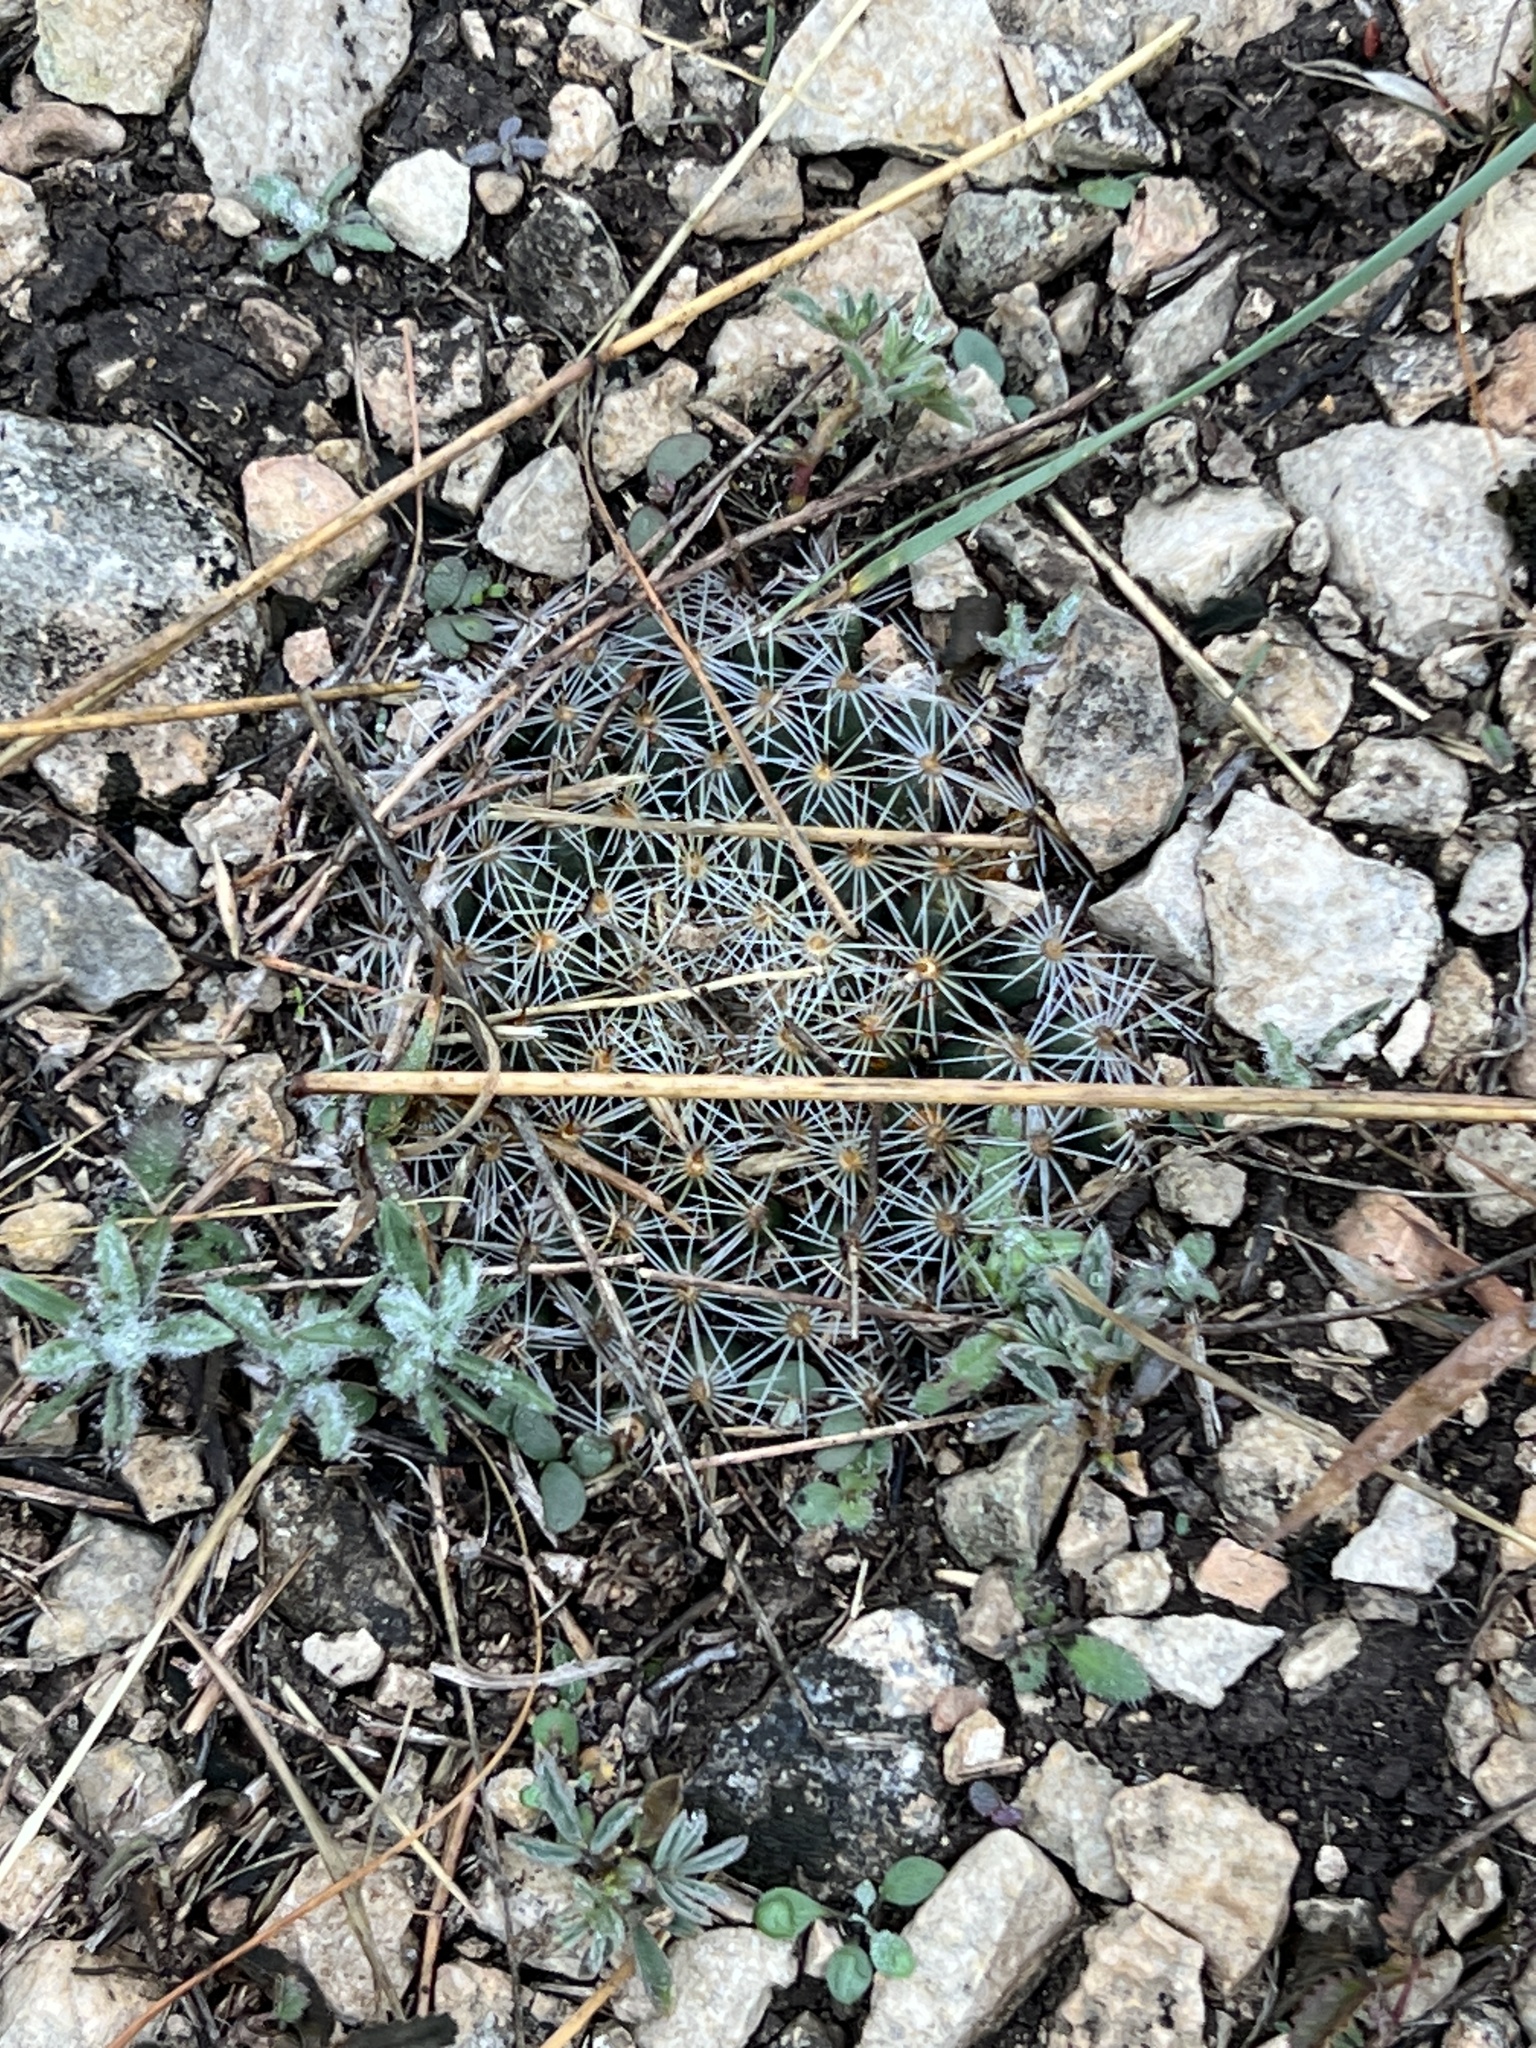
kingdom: Plantae
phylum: Tracheophyta
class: Magnoliopsida
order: Caryophyllales
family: Cactaceae
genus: Mammillaria
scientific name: Mammillaria heyderi
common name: Little nipple cactus
